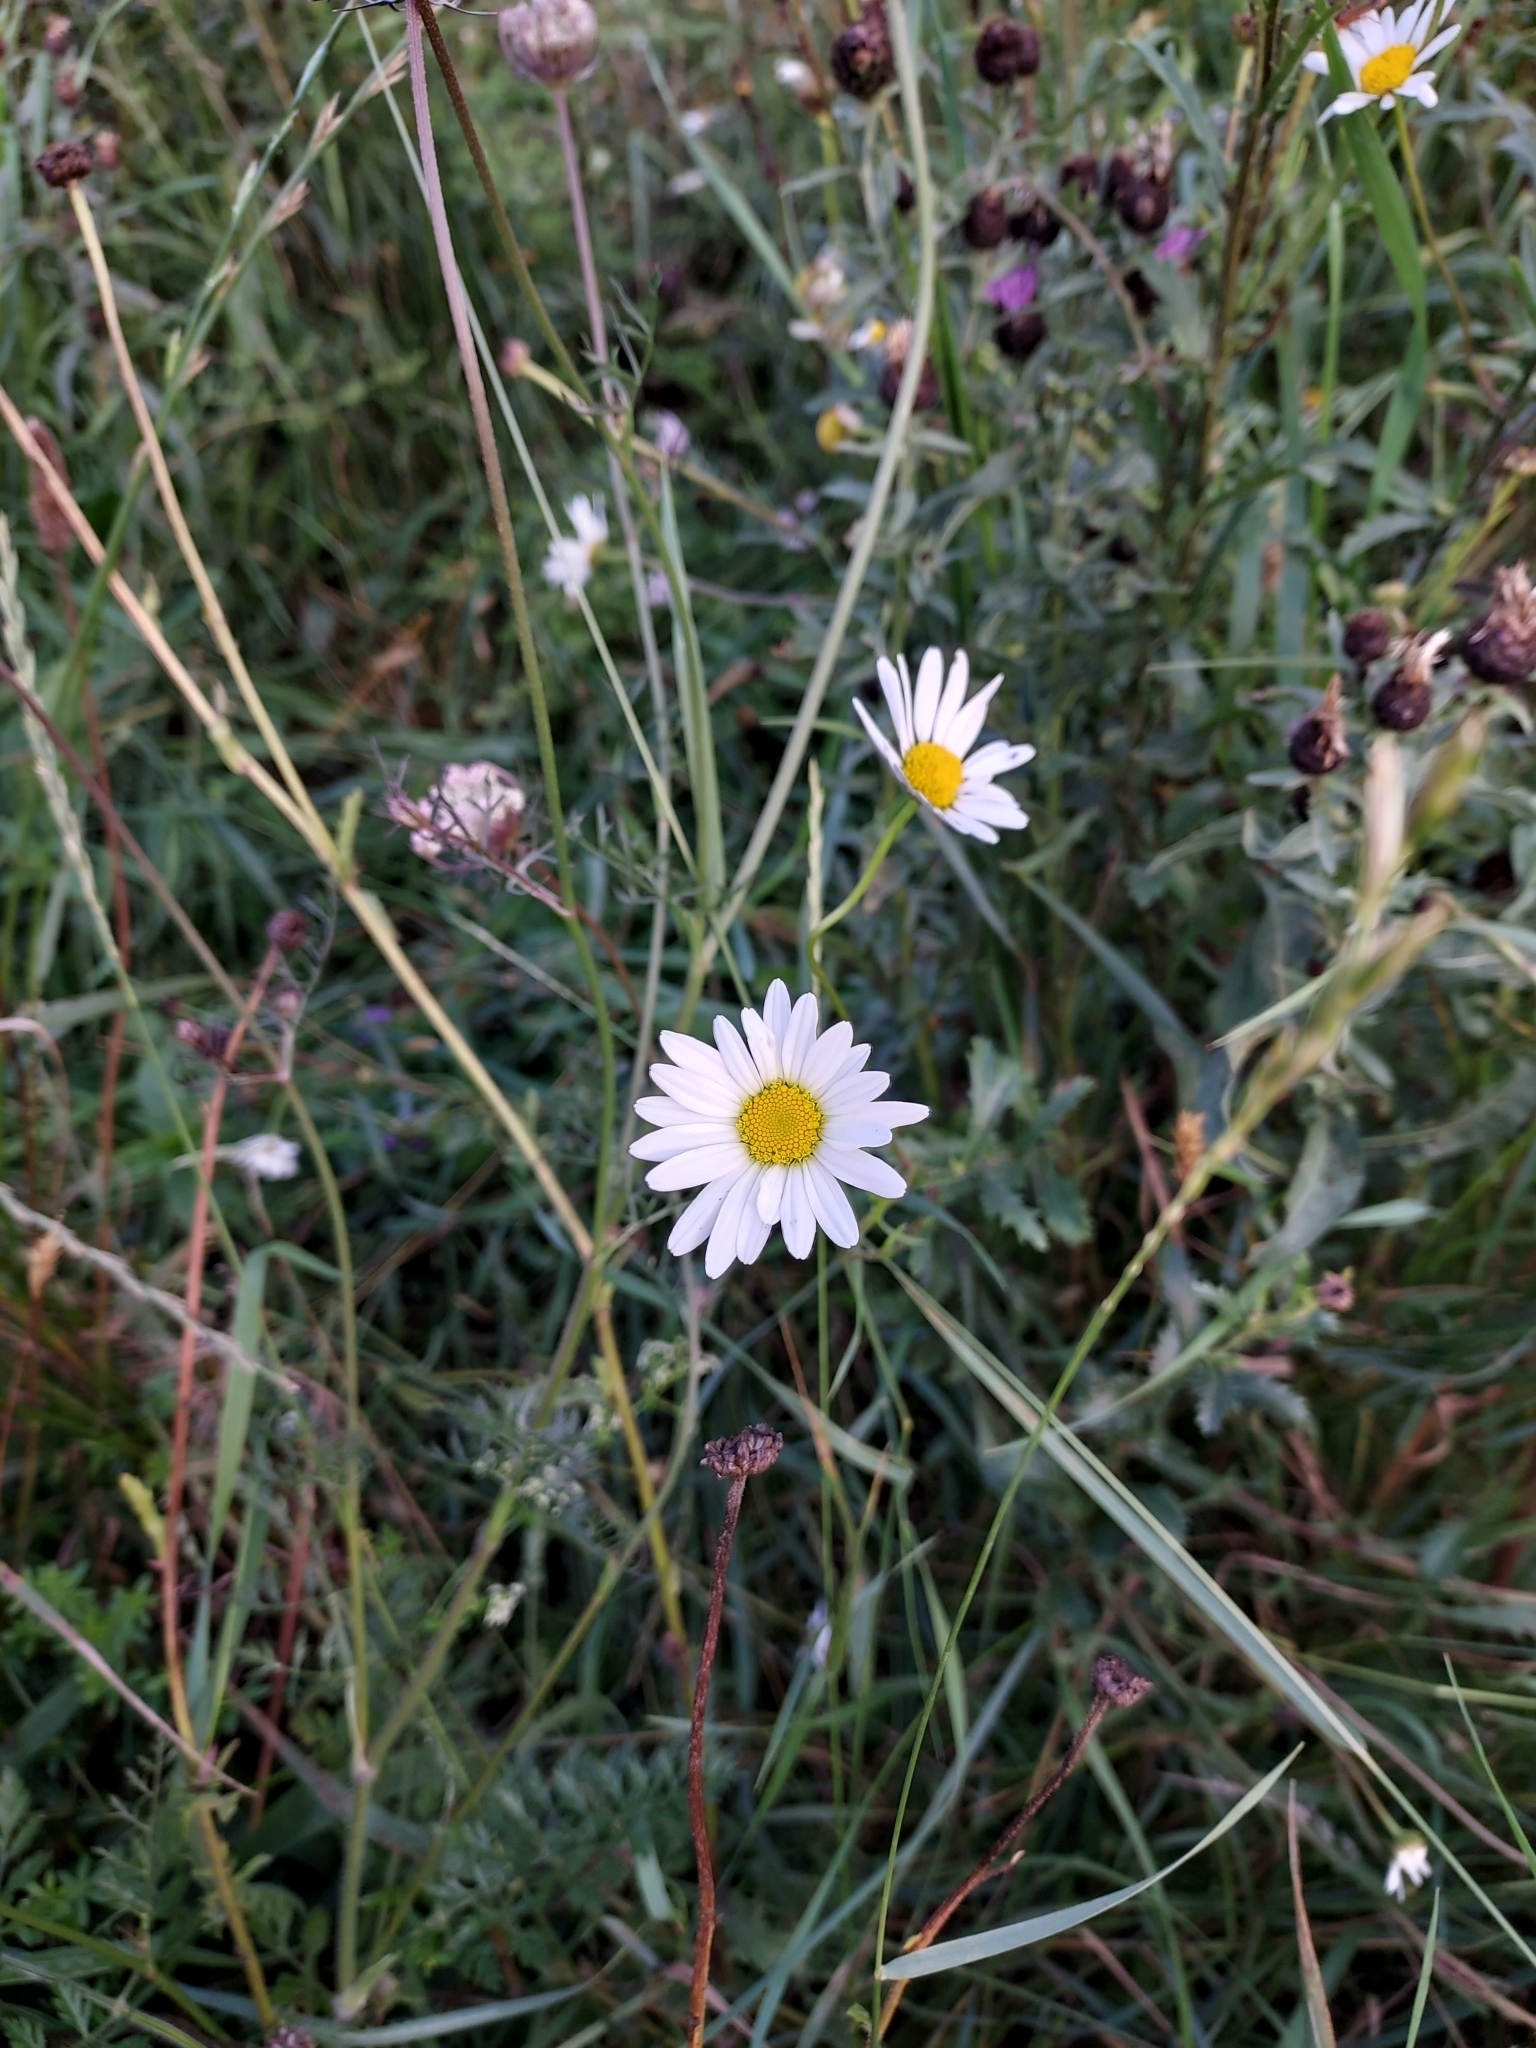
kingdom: Plantae
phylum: Tracheophyta
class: Magnoliopsida
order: Asterales
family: Asteraceae
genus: Leucanthemum
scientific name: Leucanthemum vulgare
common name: Oxeye daisy
